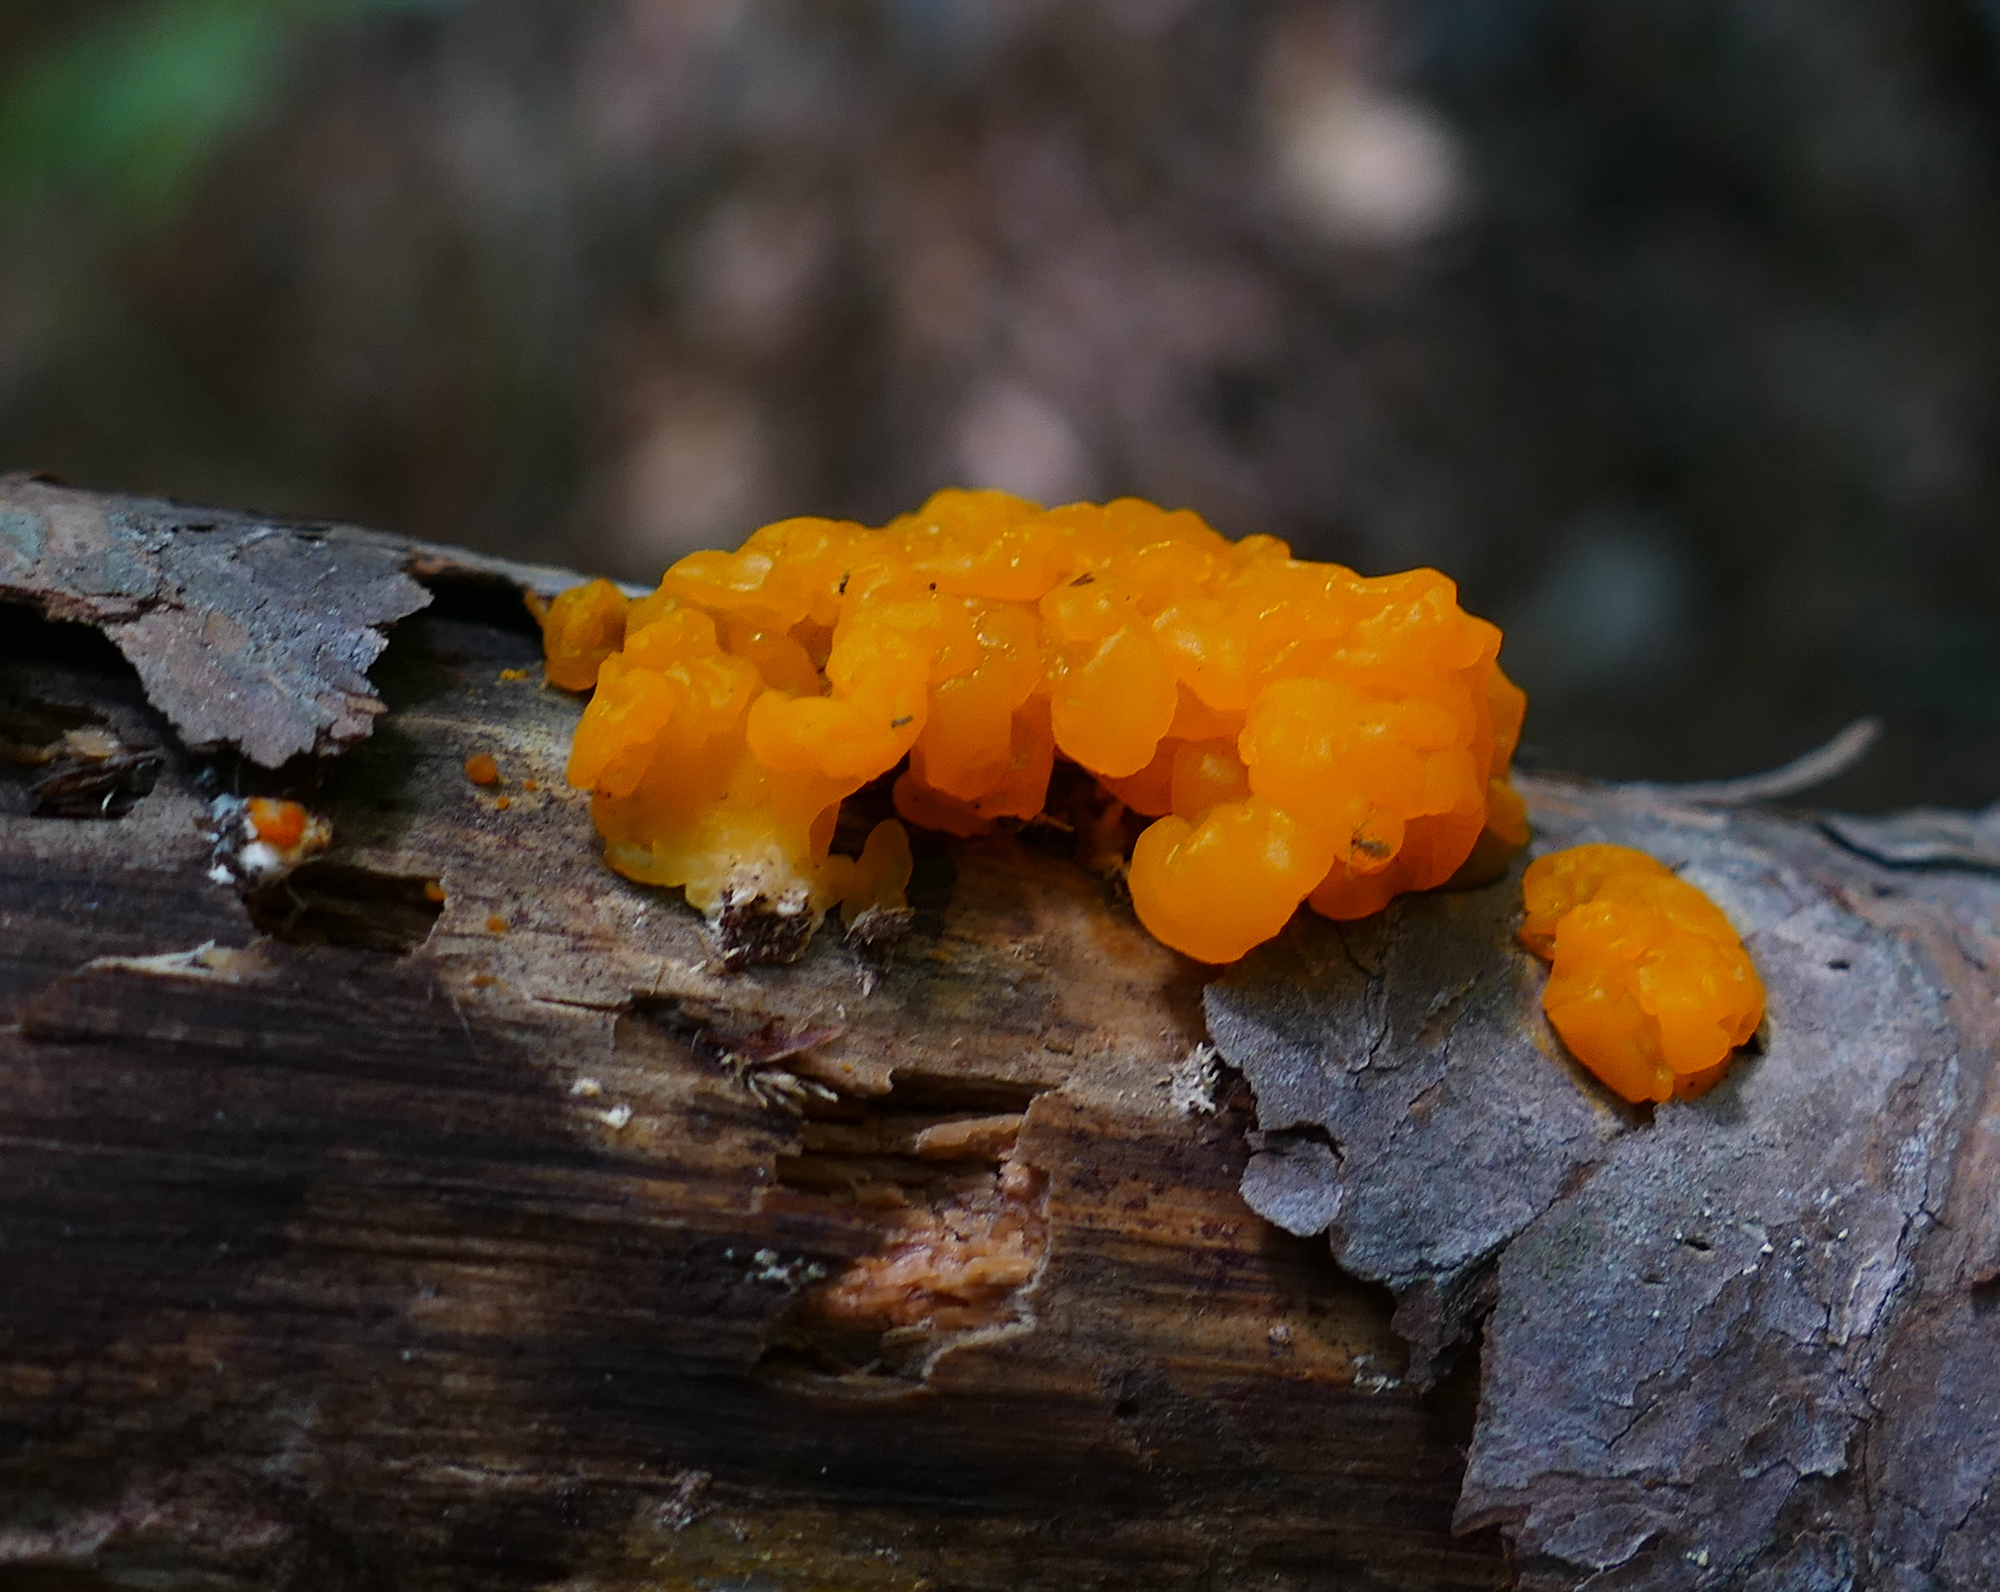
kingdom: Fungi
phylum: Basidiomycota
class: Dacrymycetes
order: Dacrymycetales
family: Dacrymycetaceae
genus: Dacrymyces
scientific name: Dacrymyces chrysospermus
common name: Orange jelly spot
